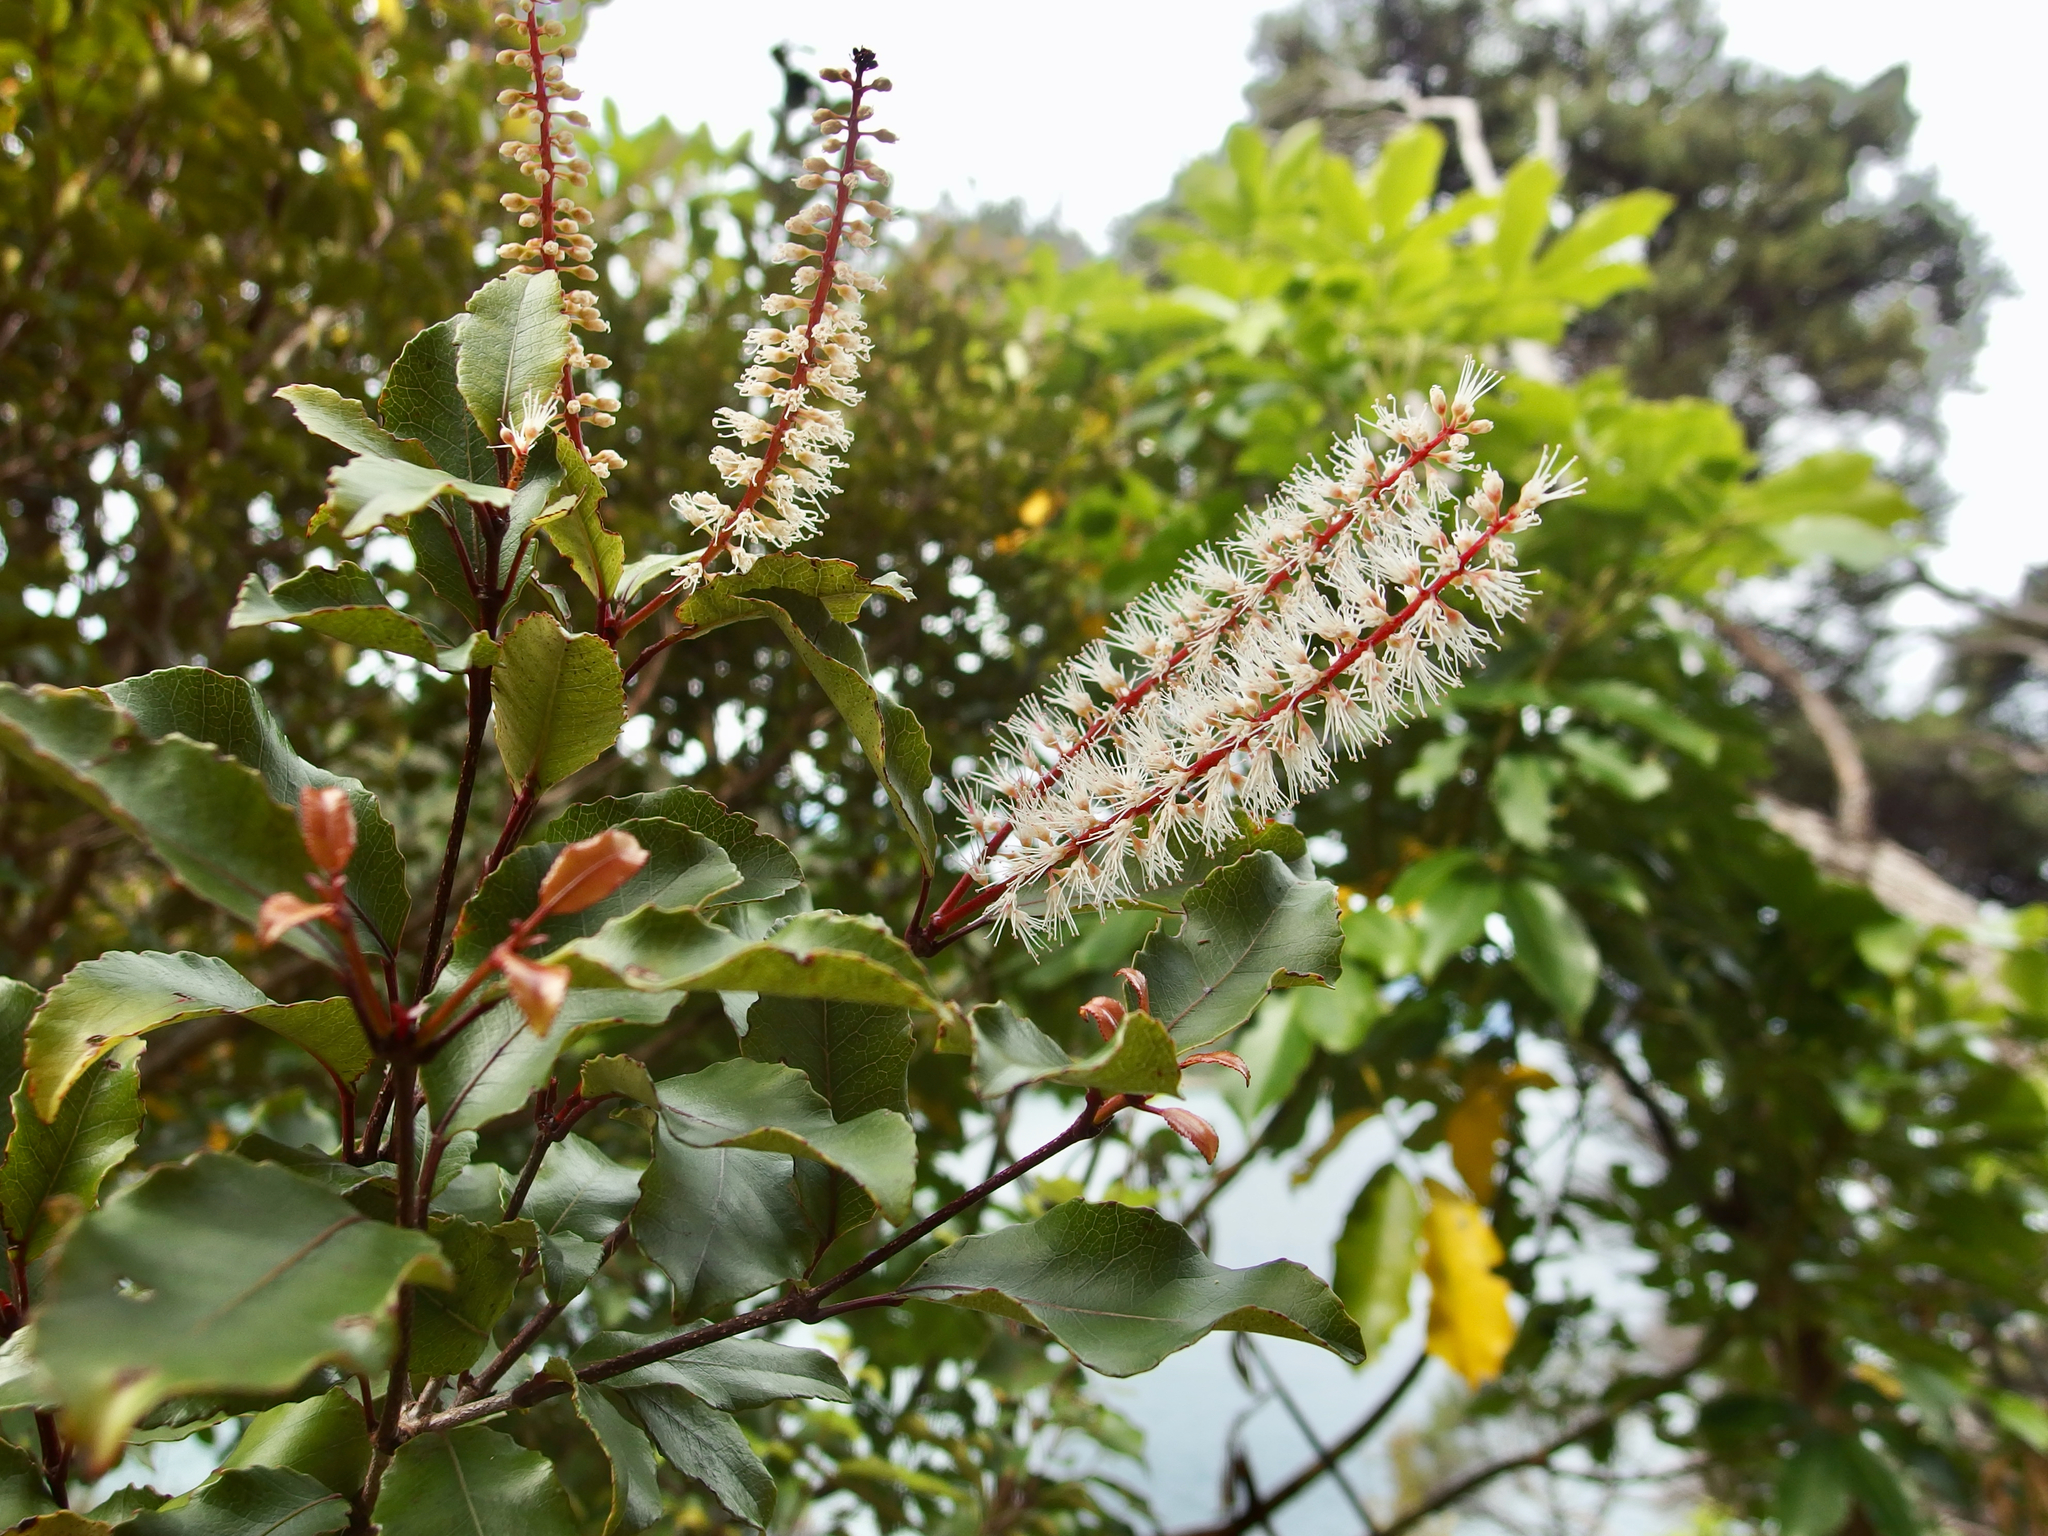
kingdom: Plantae
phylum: Tracheophyta
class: Magnoliopsida
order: Oxalidales
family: Cunoniaceae
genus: Pterophylla
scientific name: Pterophylla racemosa
